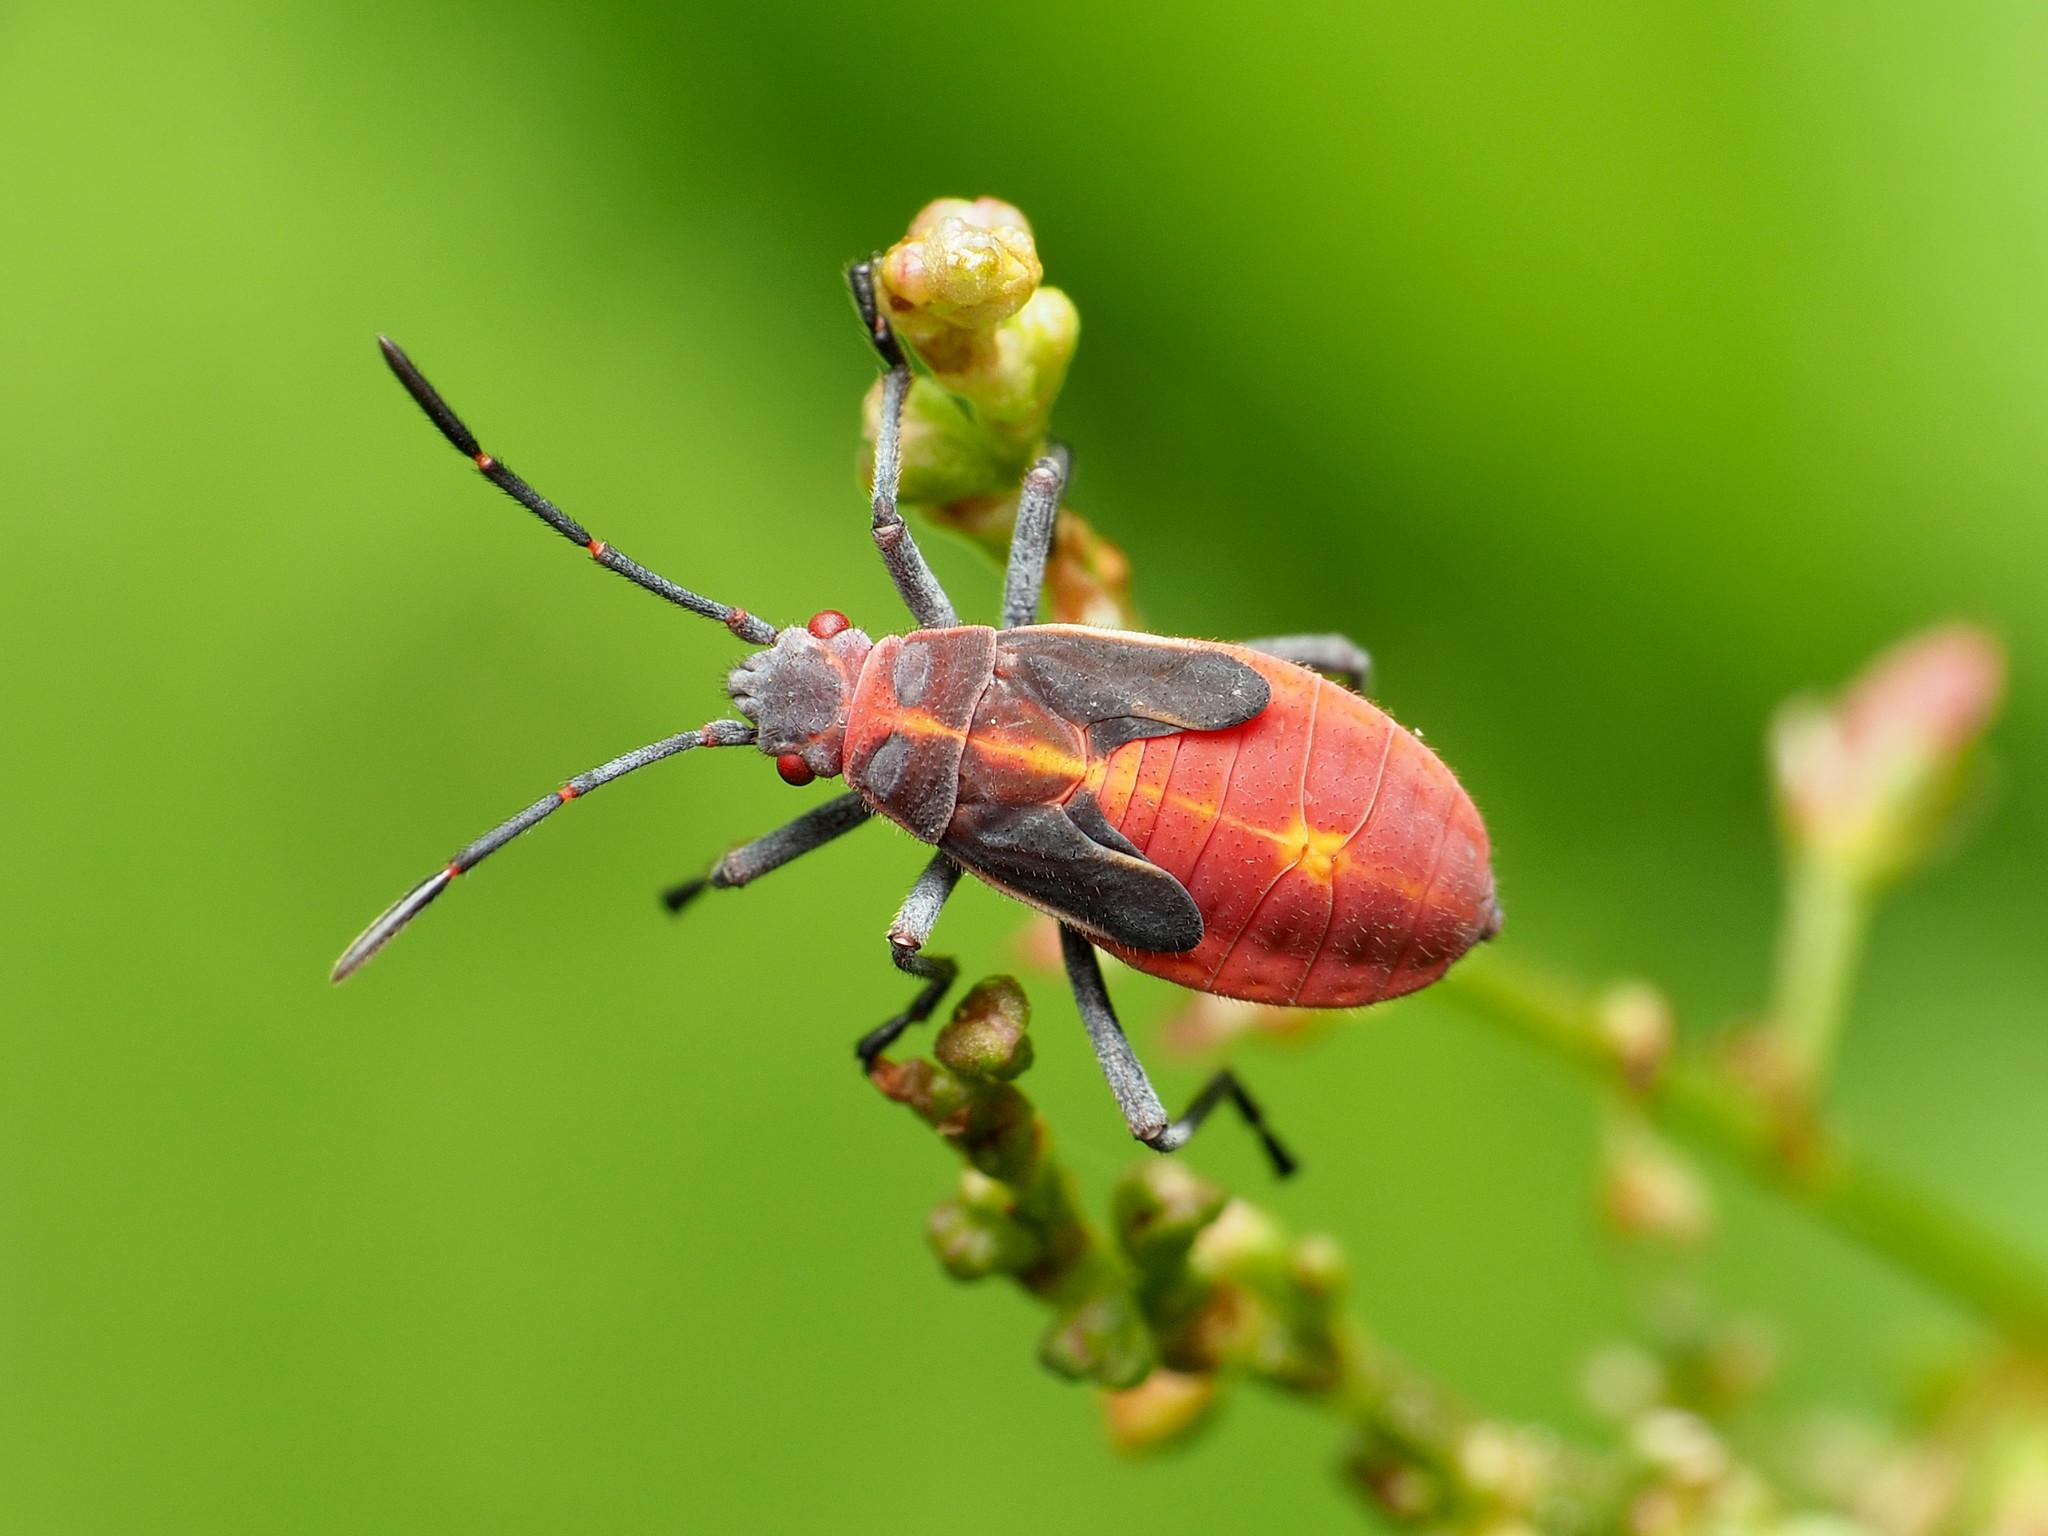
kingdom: Animalia
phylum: Arthropoda
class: Insecta
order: Hemiptera
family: Rhopalidae
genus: Boisea
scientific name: Boisea trivittata
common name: Boxelder bug
